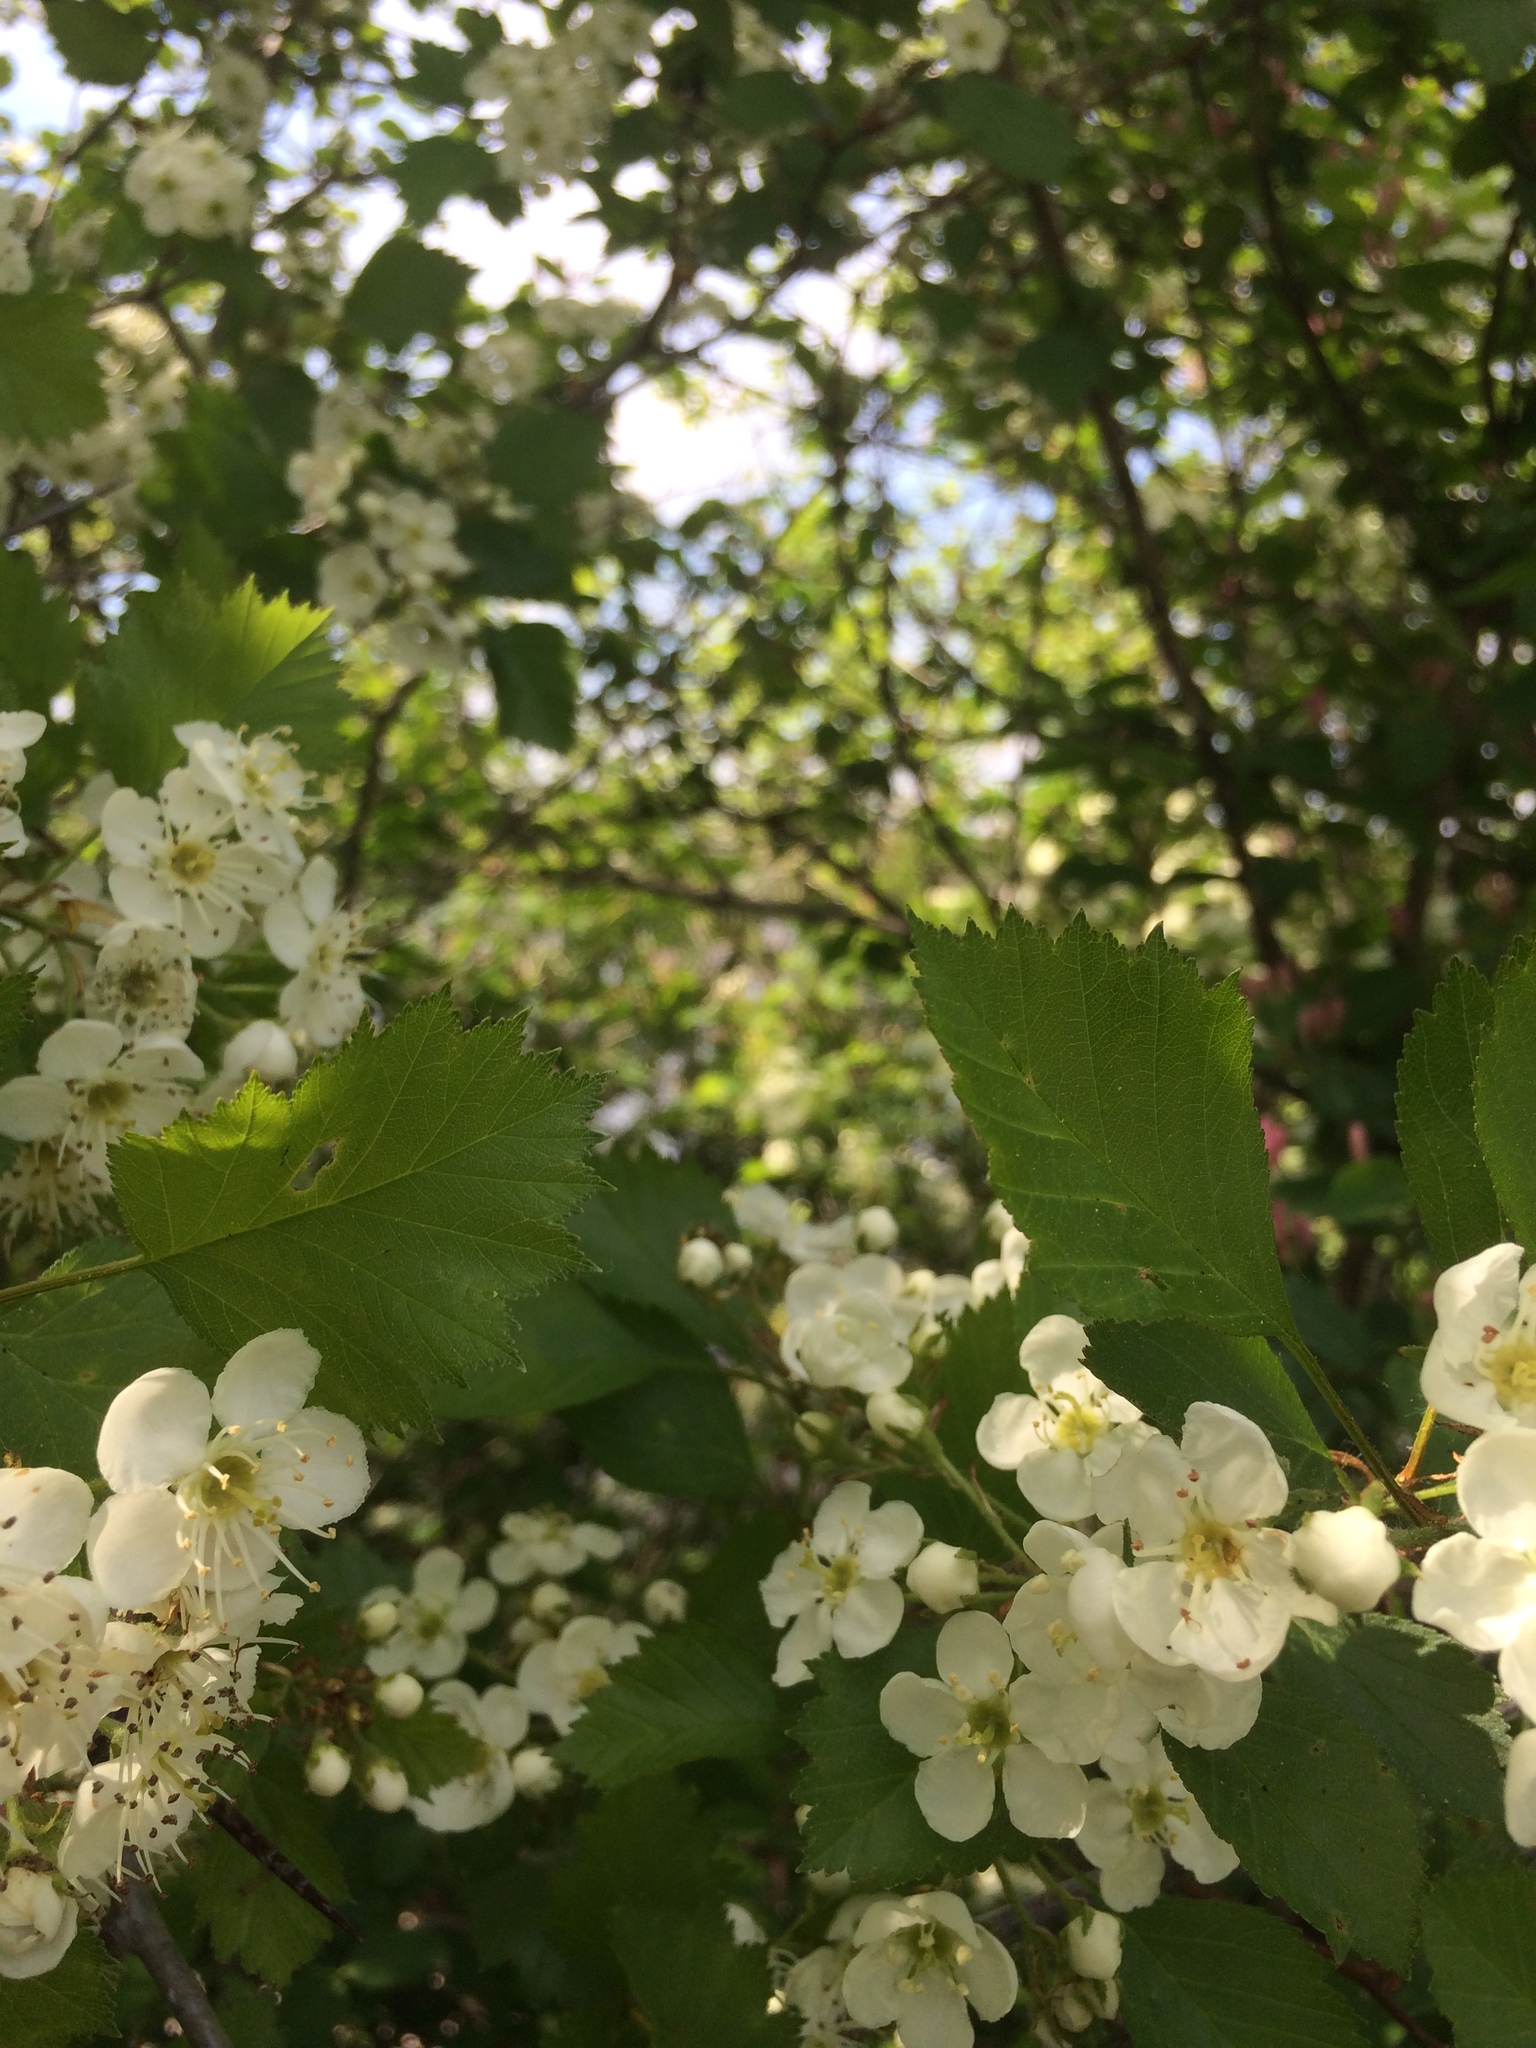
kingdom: Plantae
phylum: Tracheophyta
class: Magnoliopsida
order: Rosales
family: Rosaceae
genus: Crataegus
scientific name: Crataegus chrysocarpa
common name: Fire-berry hawthorn
